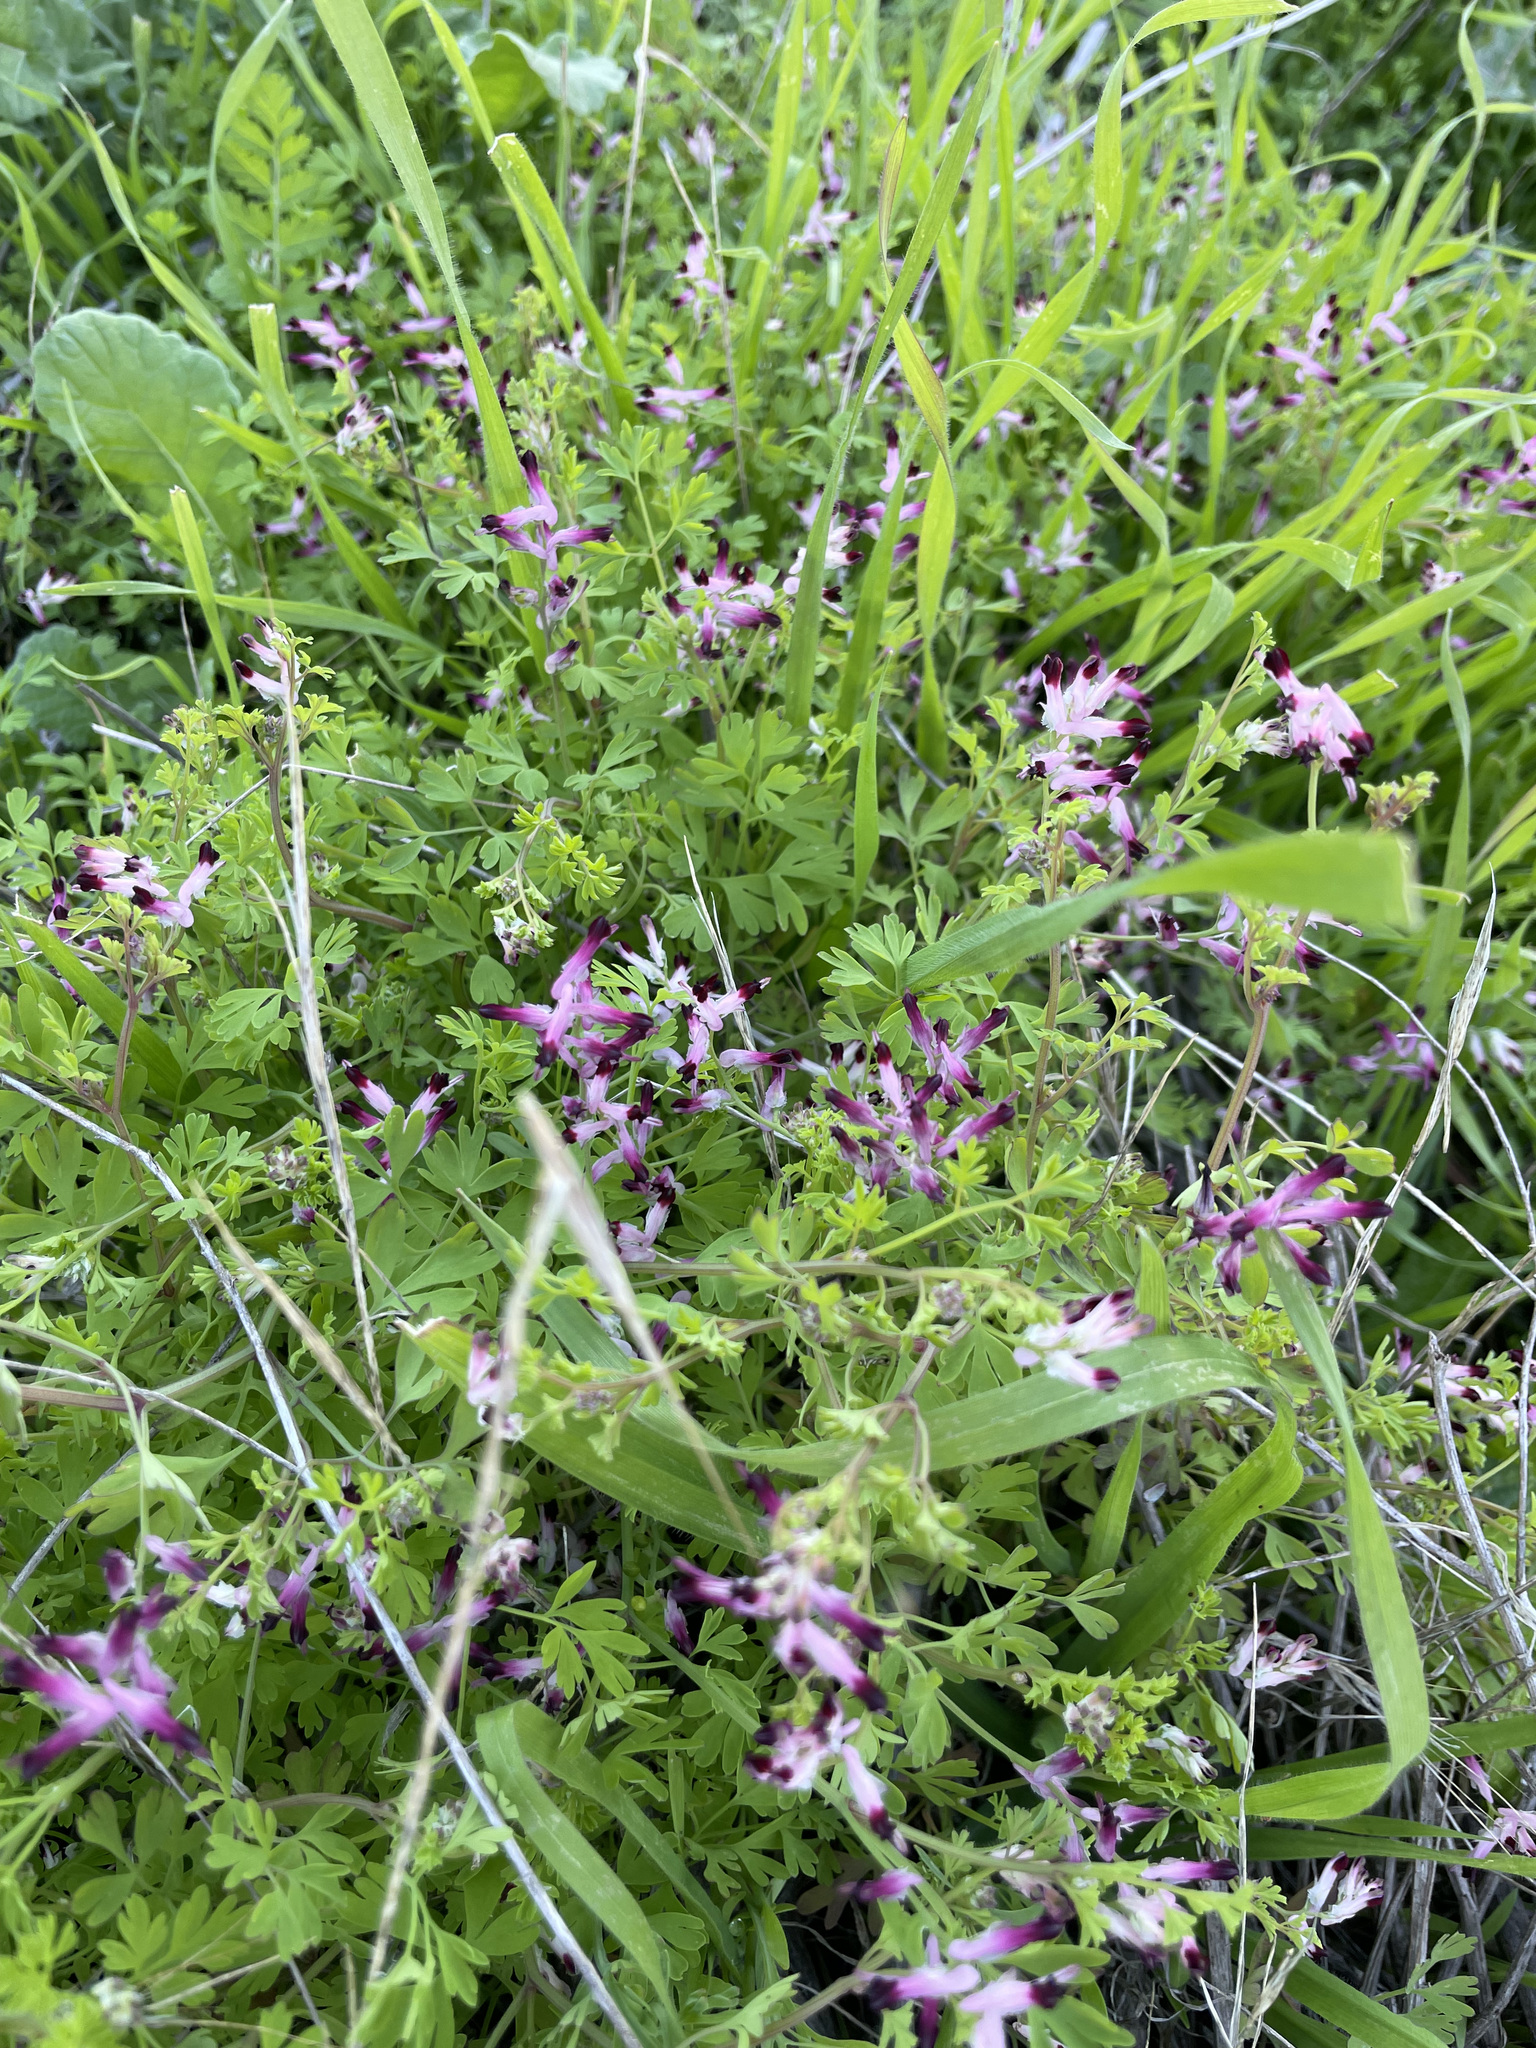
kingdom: Plantae
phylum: Tracheophyta
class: Magnoliopsida
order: Ranunculales
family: Papaveraceae
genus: Fumaria
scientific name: Fumaria muralis
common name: Common ramping-fumitory
